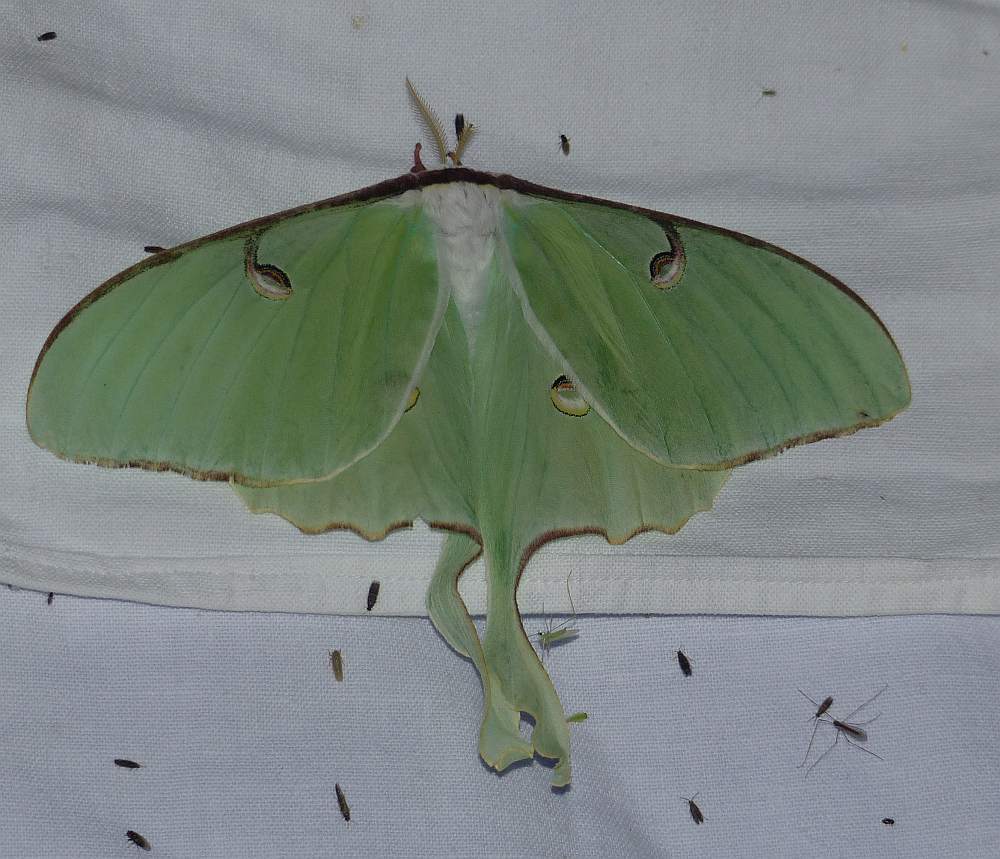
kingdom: Animalia
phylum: Arthropoda
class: Insecta
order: Lepidoptera
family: Saturniidae
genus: Actias
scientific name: Actias luna
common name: Luna moth
